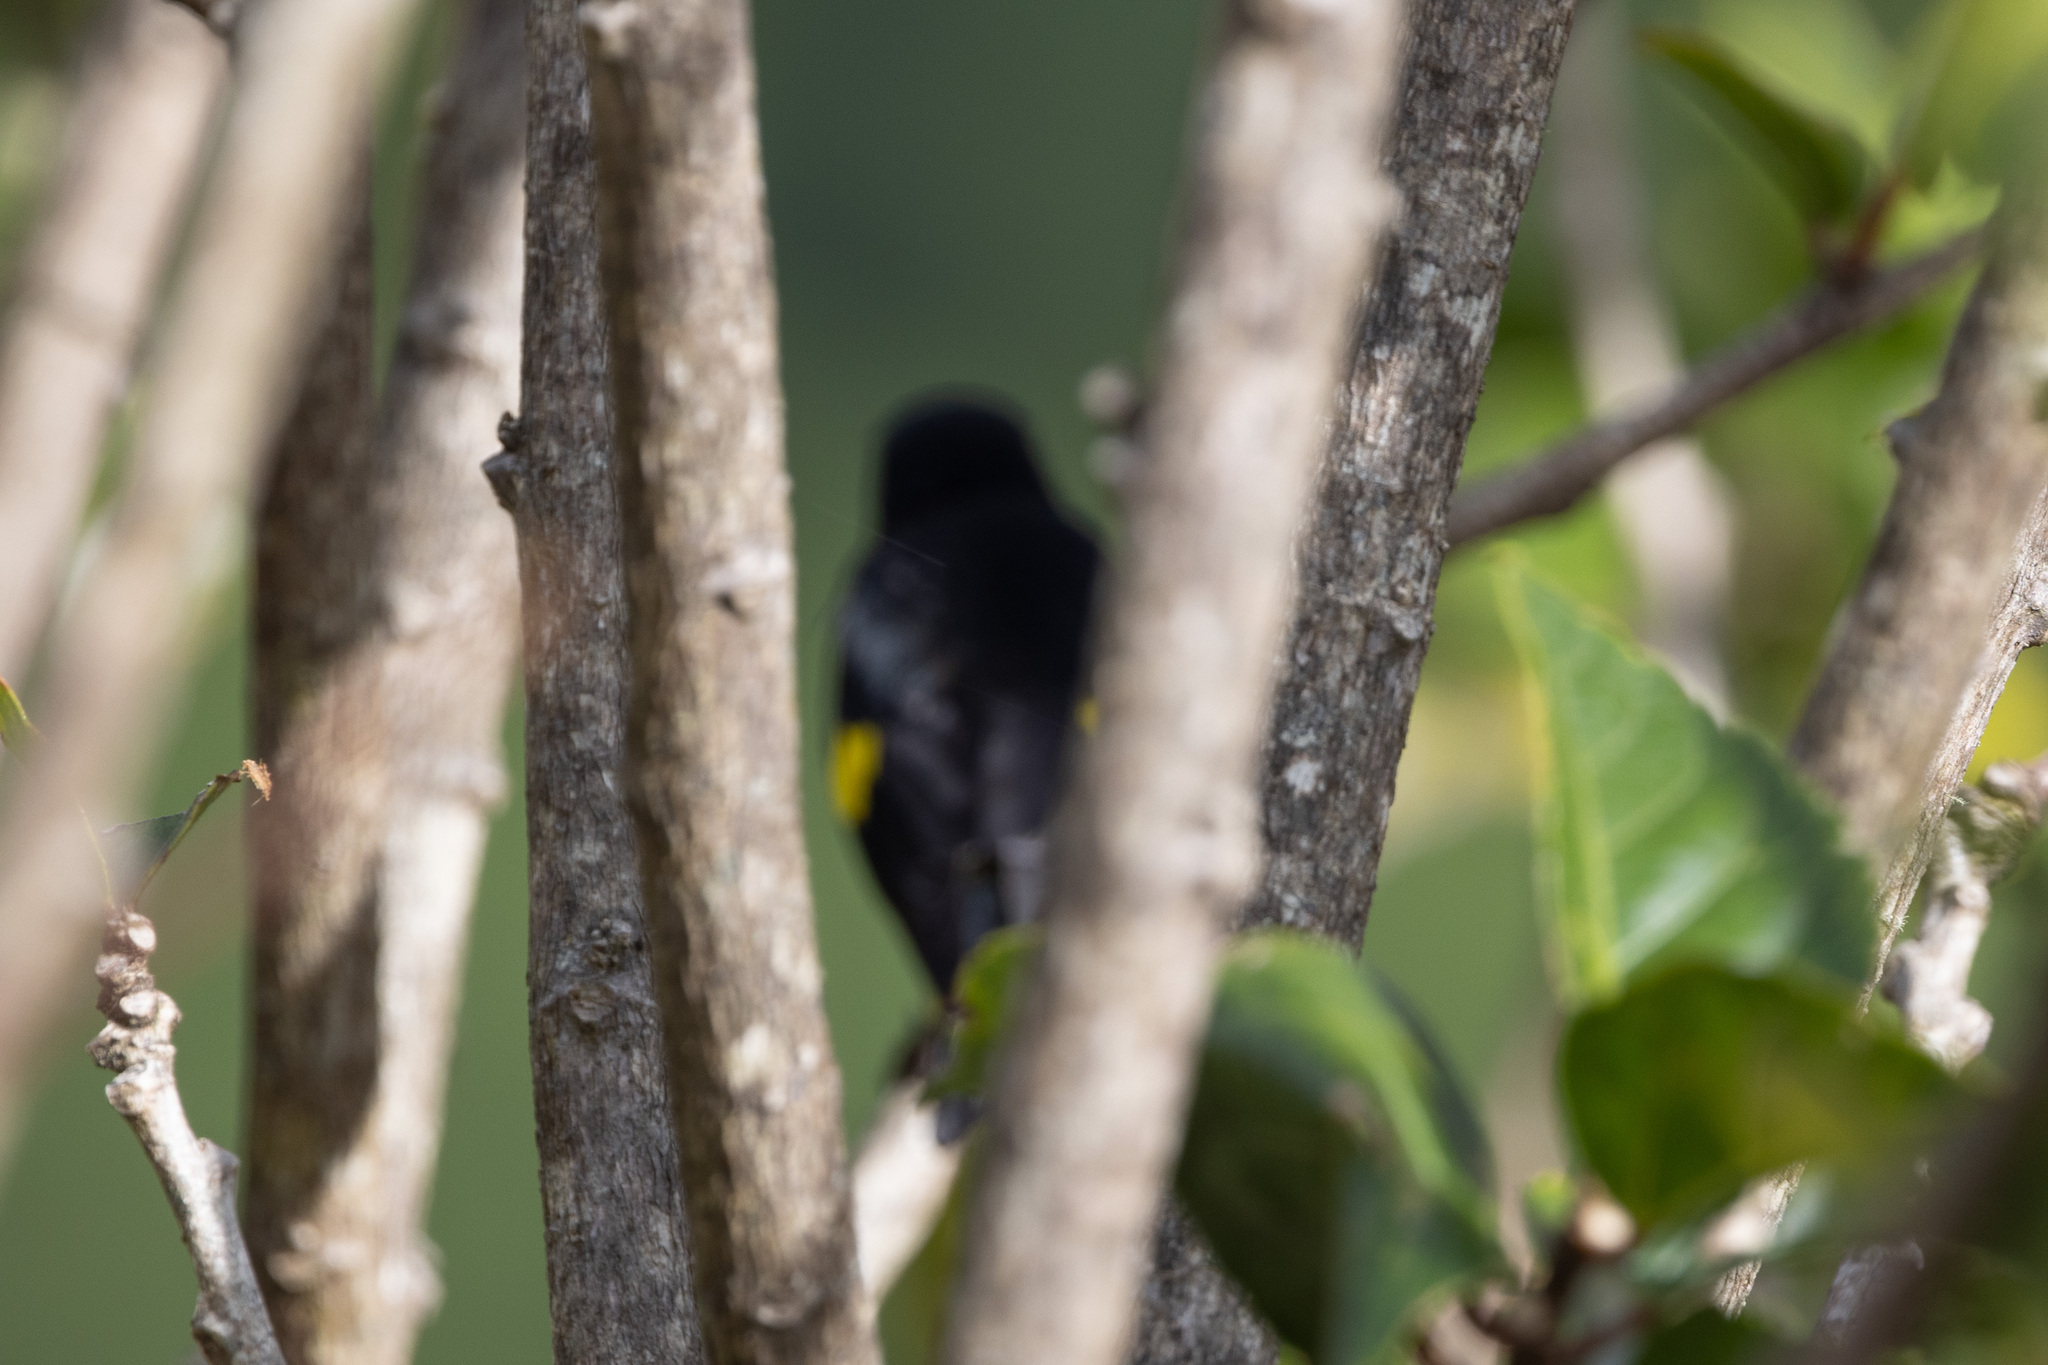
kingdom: Animalia
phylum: Chordata
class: Aves
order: Passeriformes
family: Fringillidae
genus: Spinus
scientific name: Spinus xanthogastrus
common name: Yellow-bellied siskin
